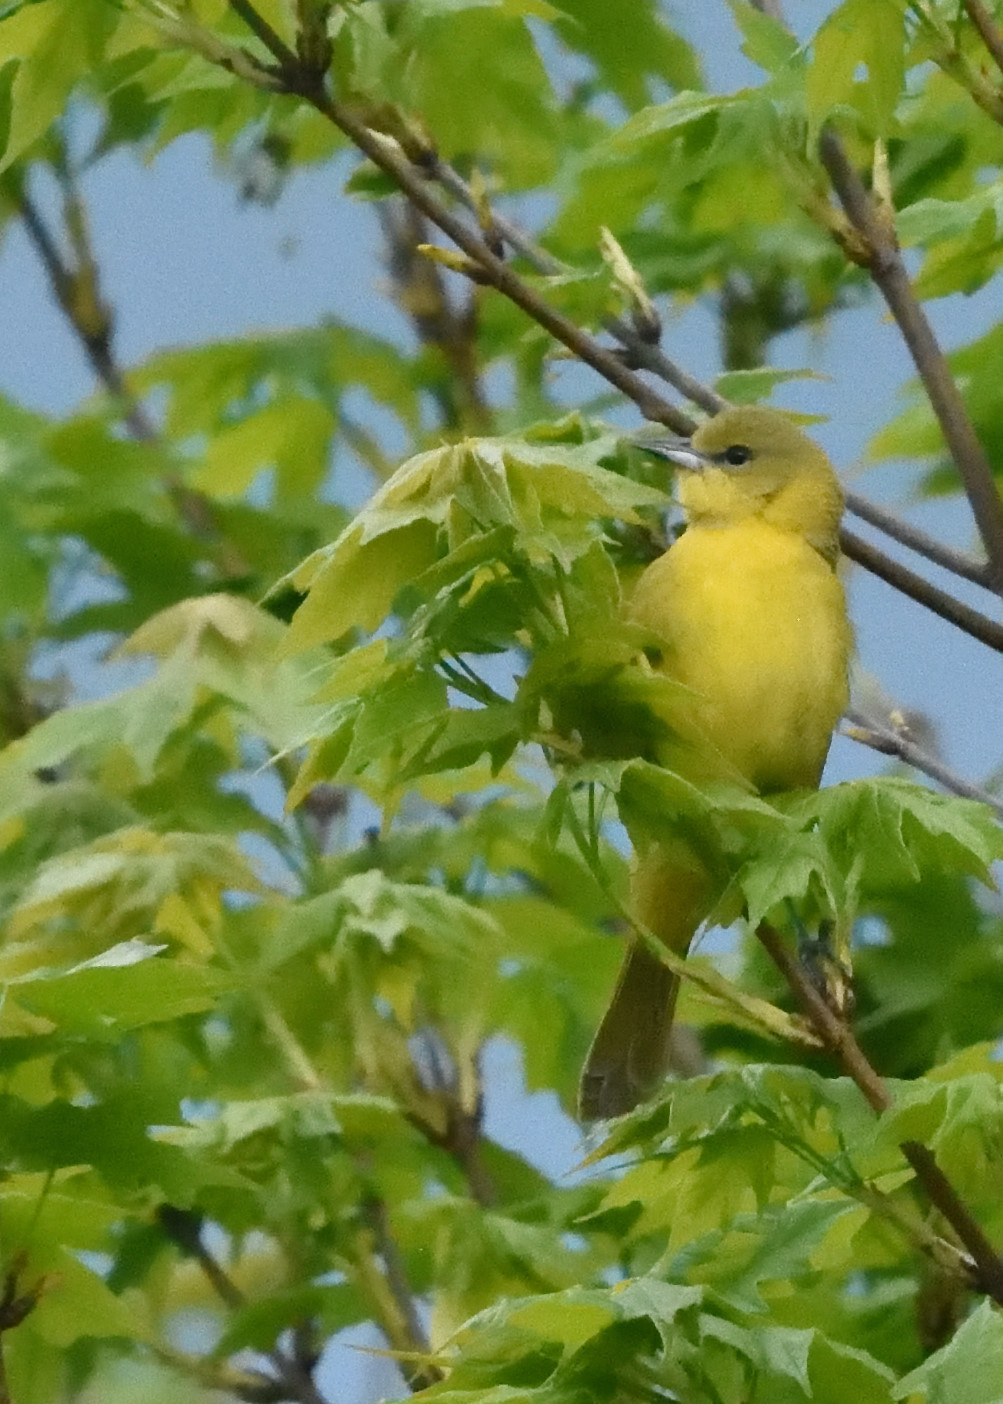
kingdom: Animalia
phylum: Chordata
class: Aves
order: Passeriformes
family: Icteridae
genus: Icterus
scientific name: Icterus spurius
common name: Orchard oriole
